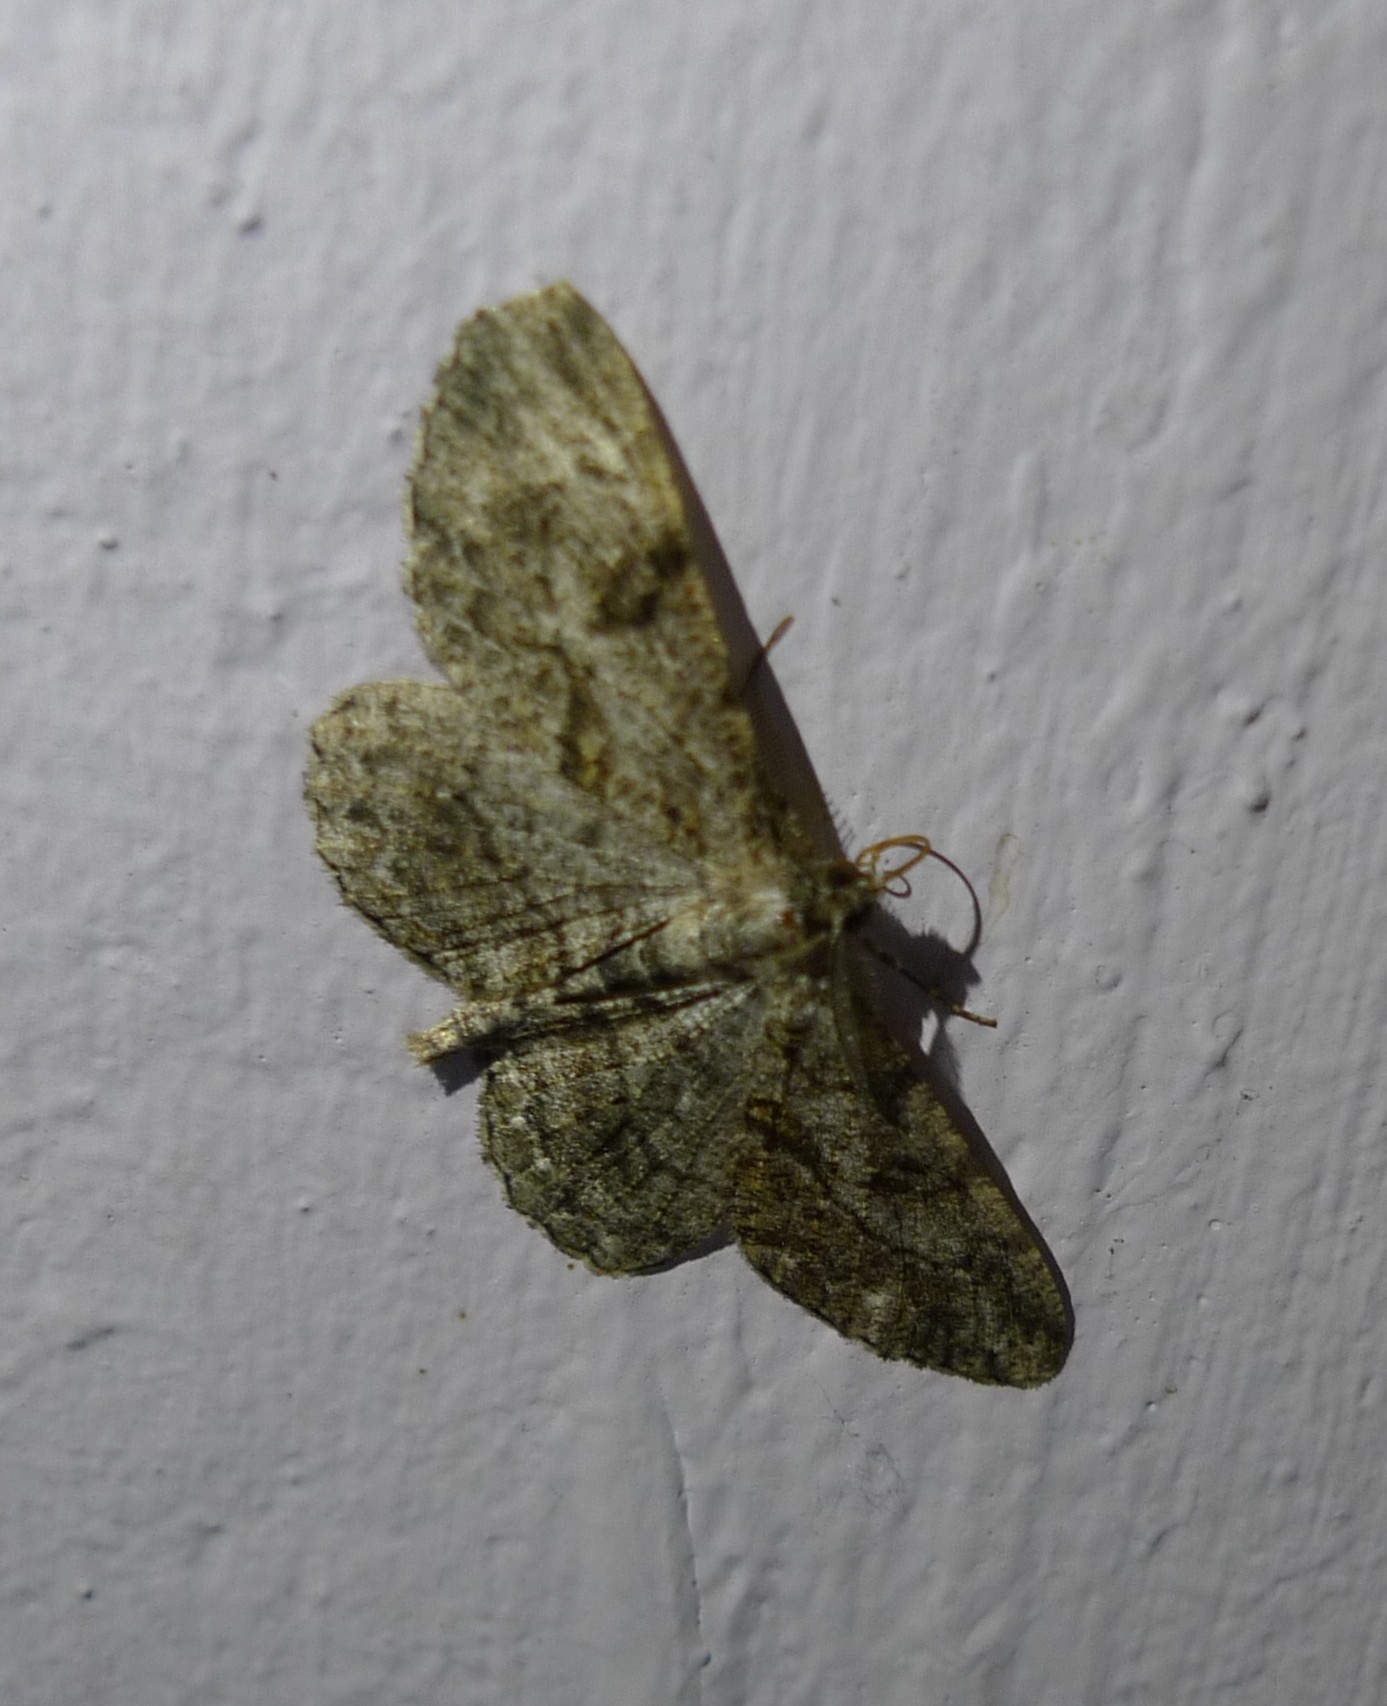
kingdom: Animalia
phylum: Arthropoda
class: Insecta
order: Lepidoptera
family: Geometridae
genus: Peribatodes
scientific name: Peribatodes rhomboidaria
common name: Willow beauty
